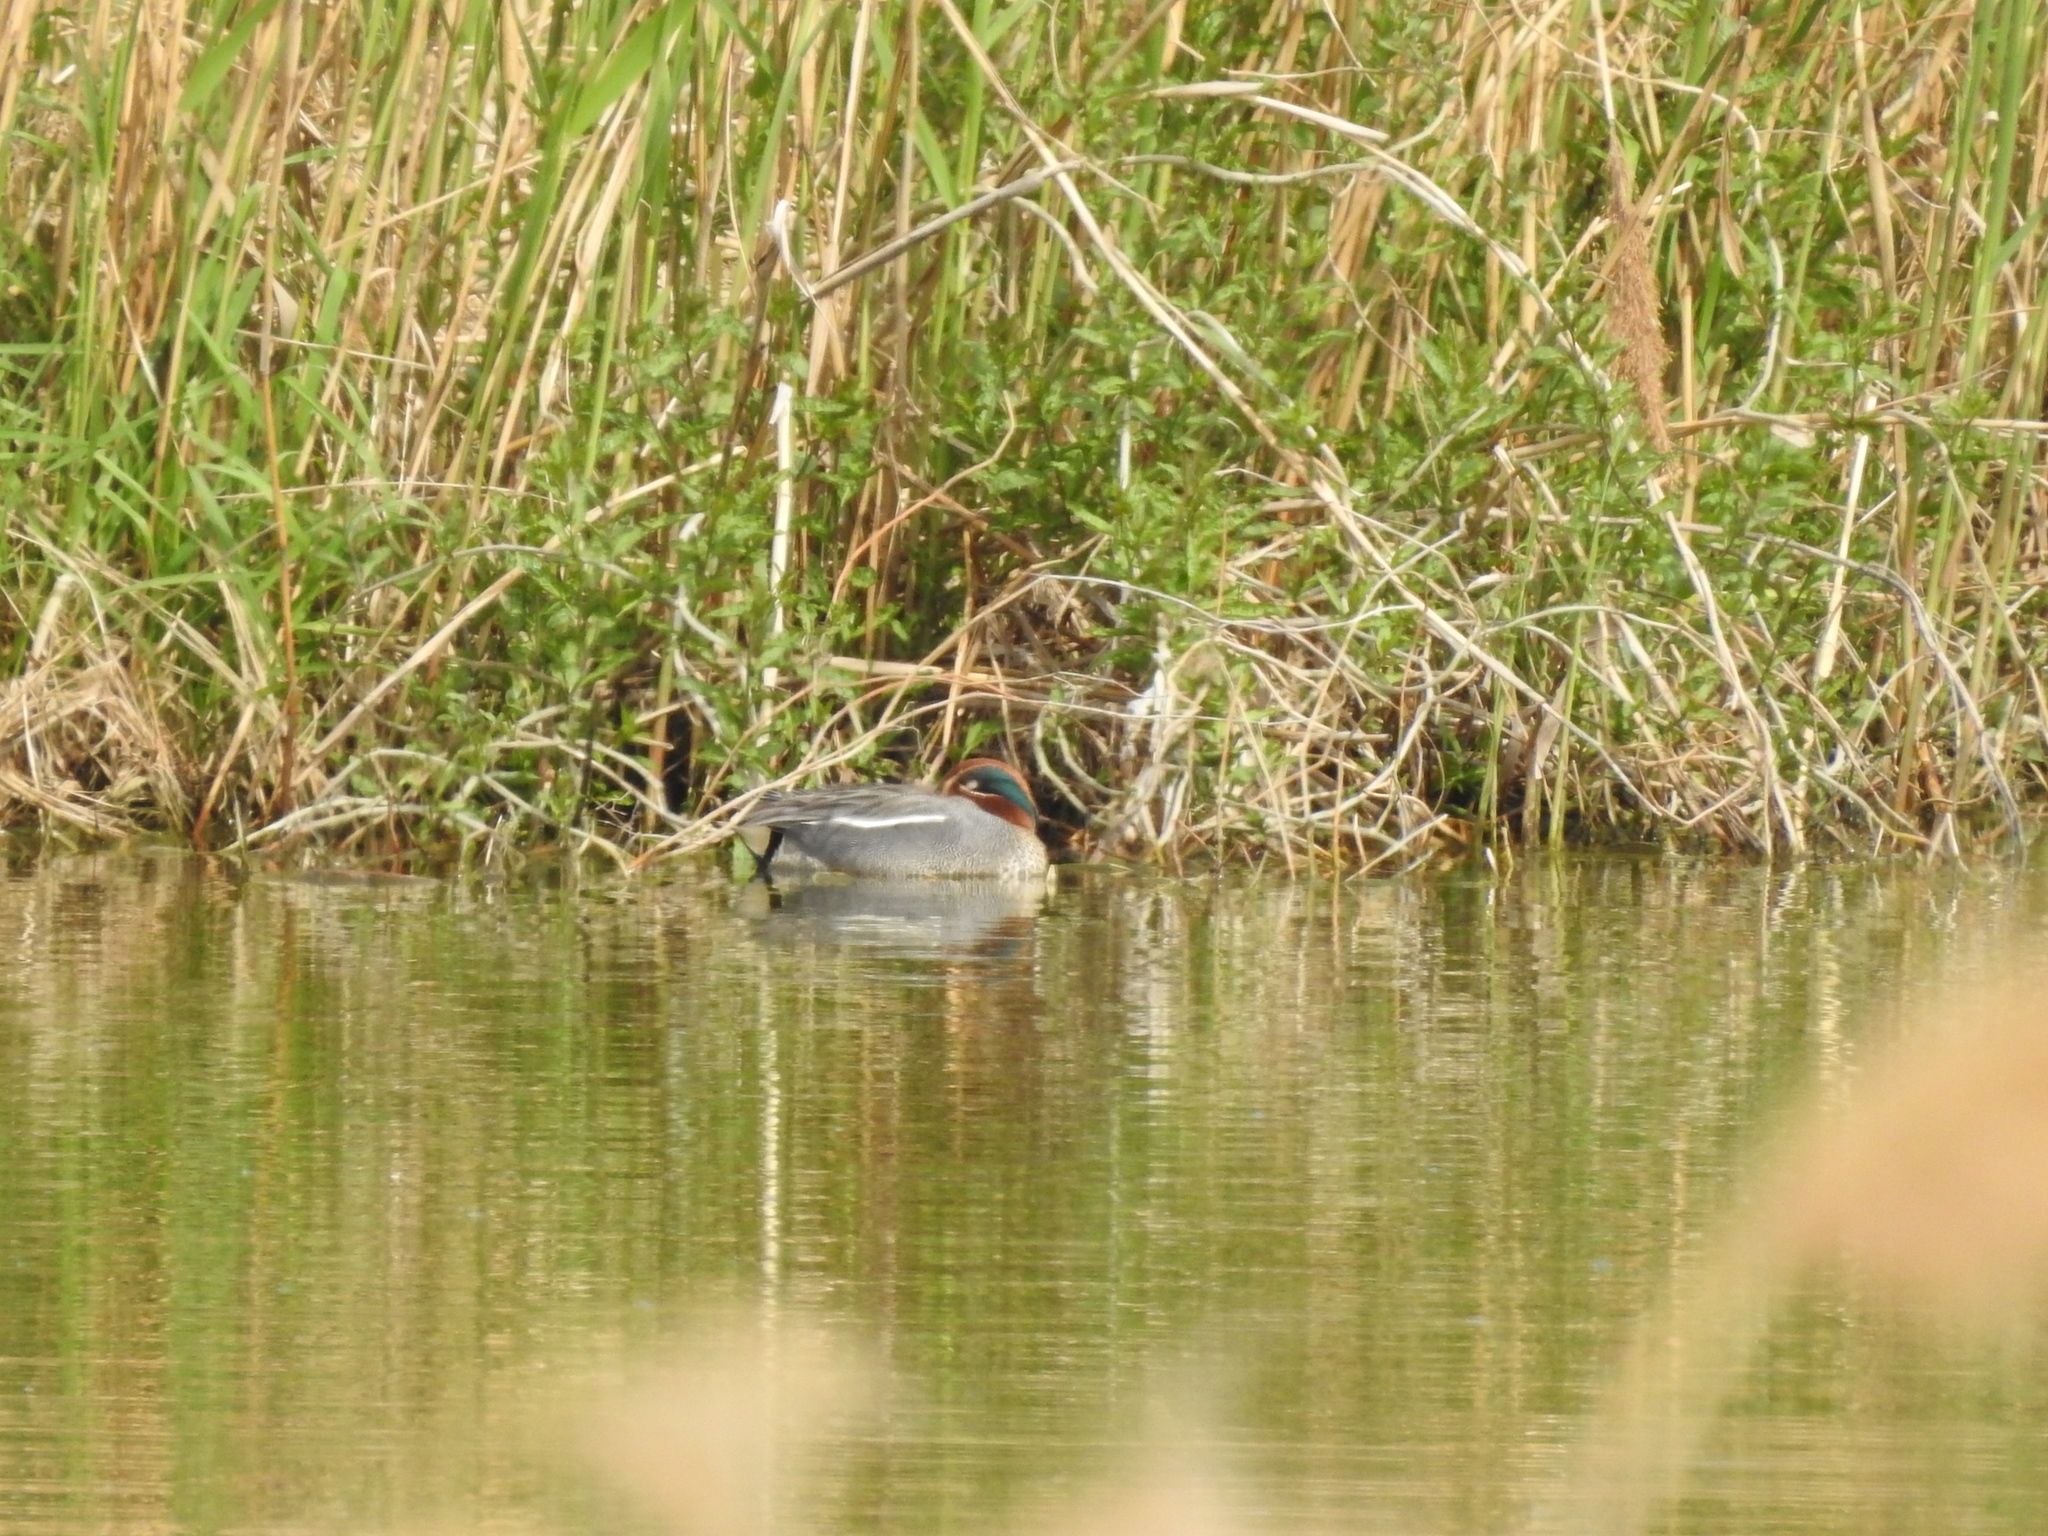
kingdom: Animalia
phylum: Chordata
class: Aves
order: Anseriformes
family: Anatidae
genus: Anas
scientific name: Anas crecca
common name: Eurasian teal
